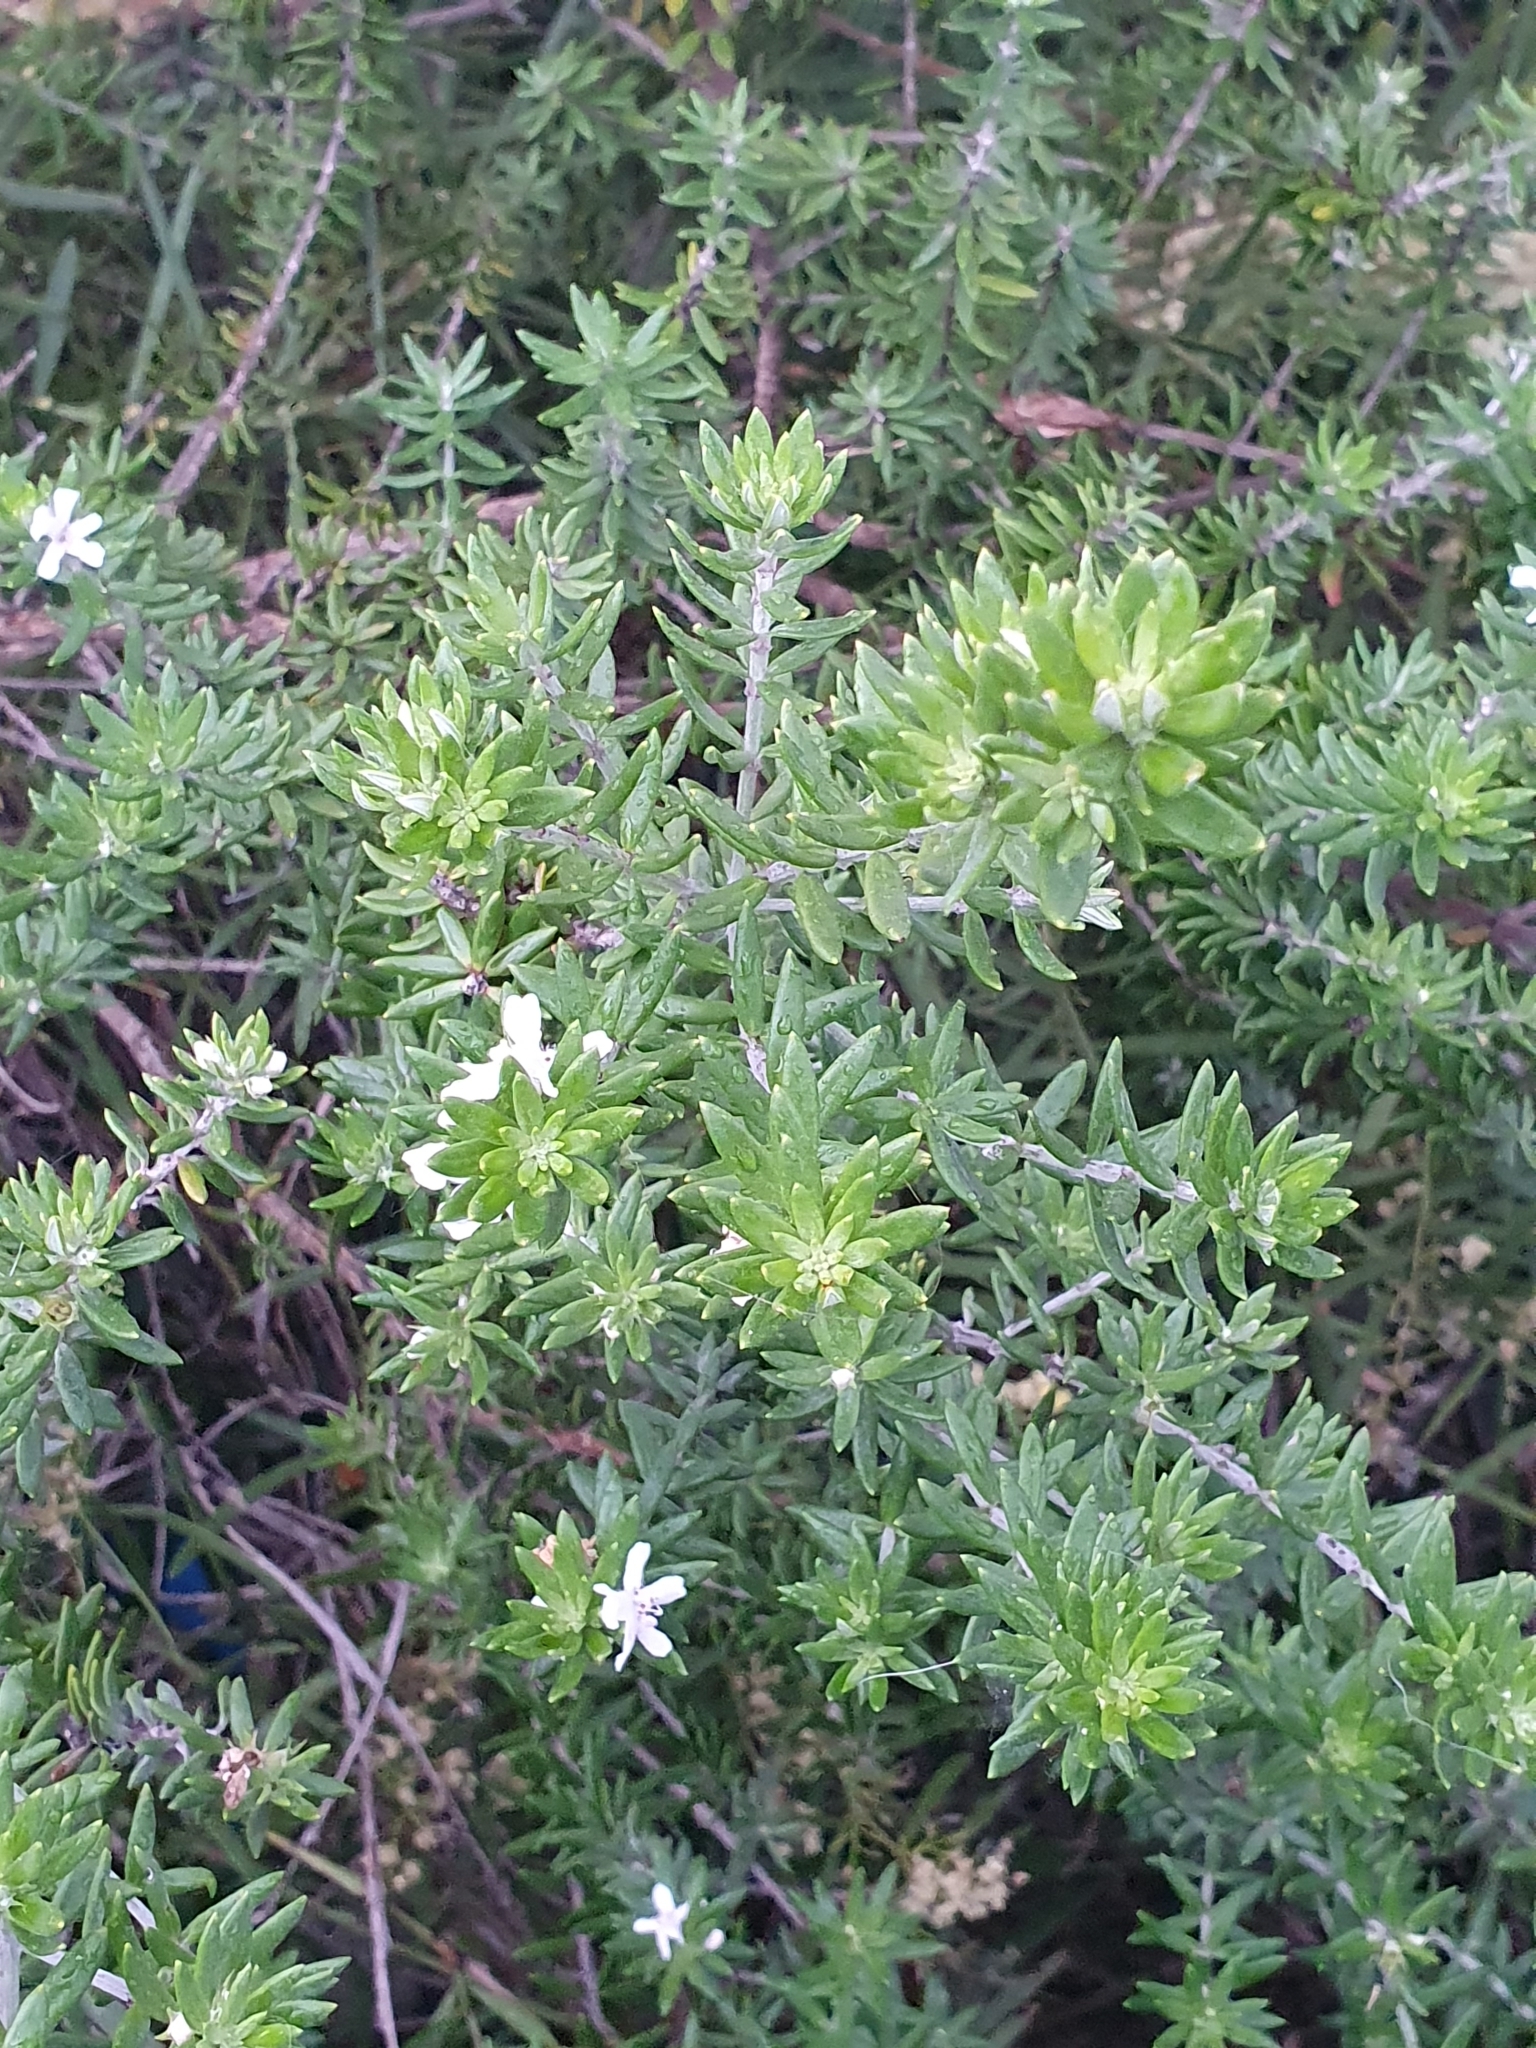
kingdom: Plantae
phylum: Tracheophyta
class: Magnoliopsida
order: Lamiales
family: Lamiaceae
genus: Westringia
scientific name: Westringia fruticosa
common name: Coastal-rosemary
